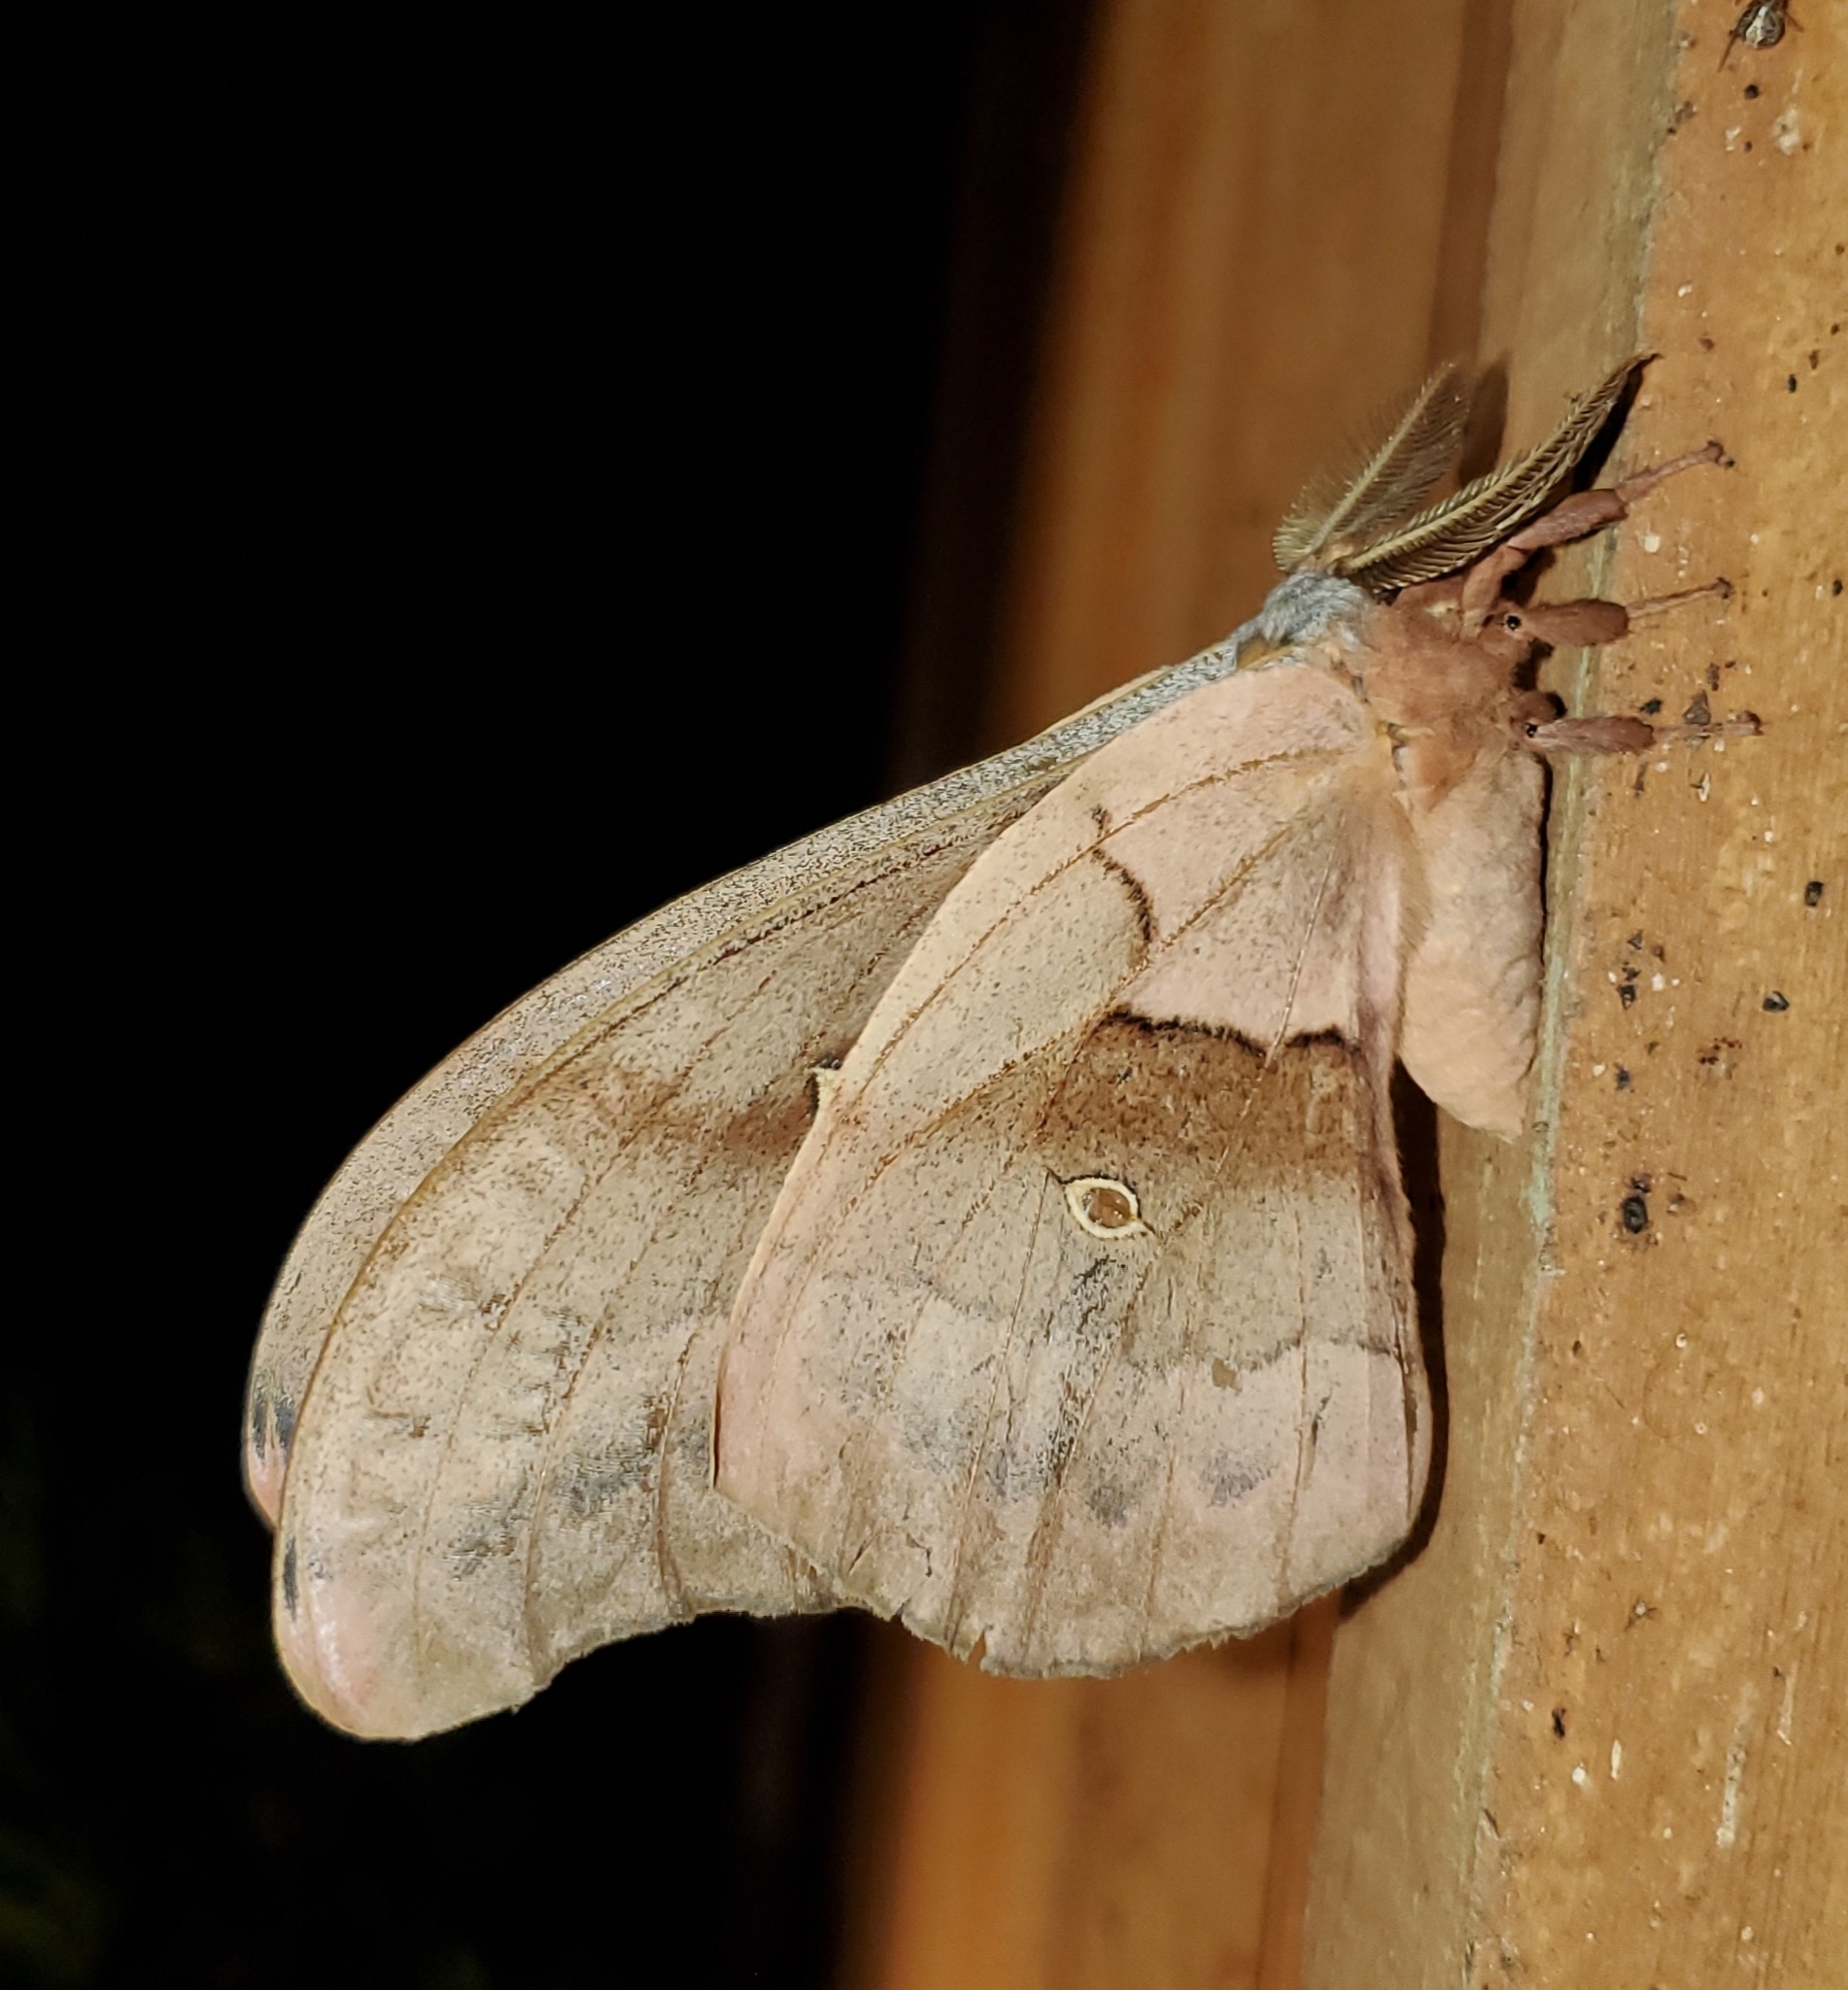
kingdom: Animalia
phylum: Arthropoda
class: Insecta
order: Lepidoptera
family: Saturniidae
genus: Antheraea
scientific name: Antheraea polyphemus
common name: Polyphemus moth
